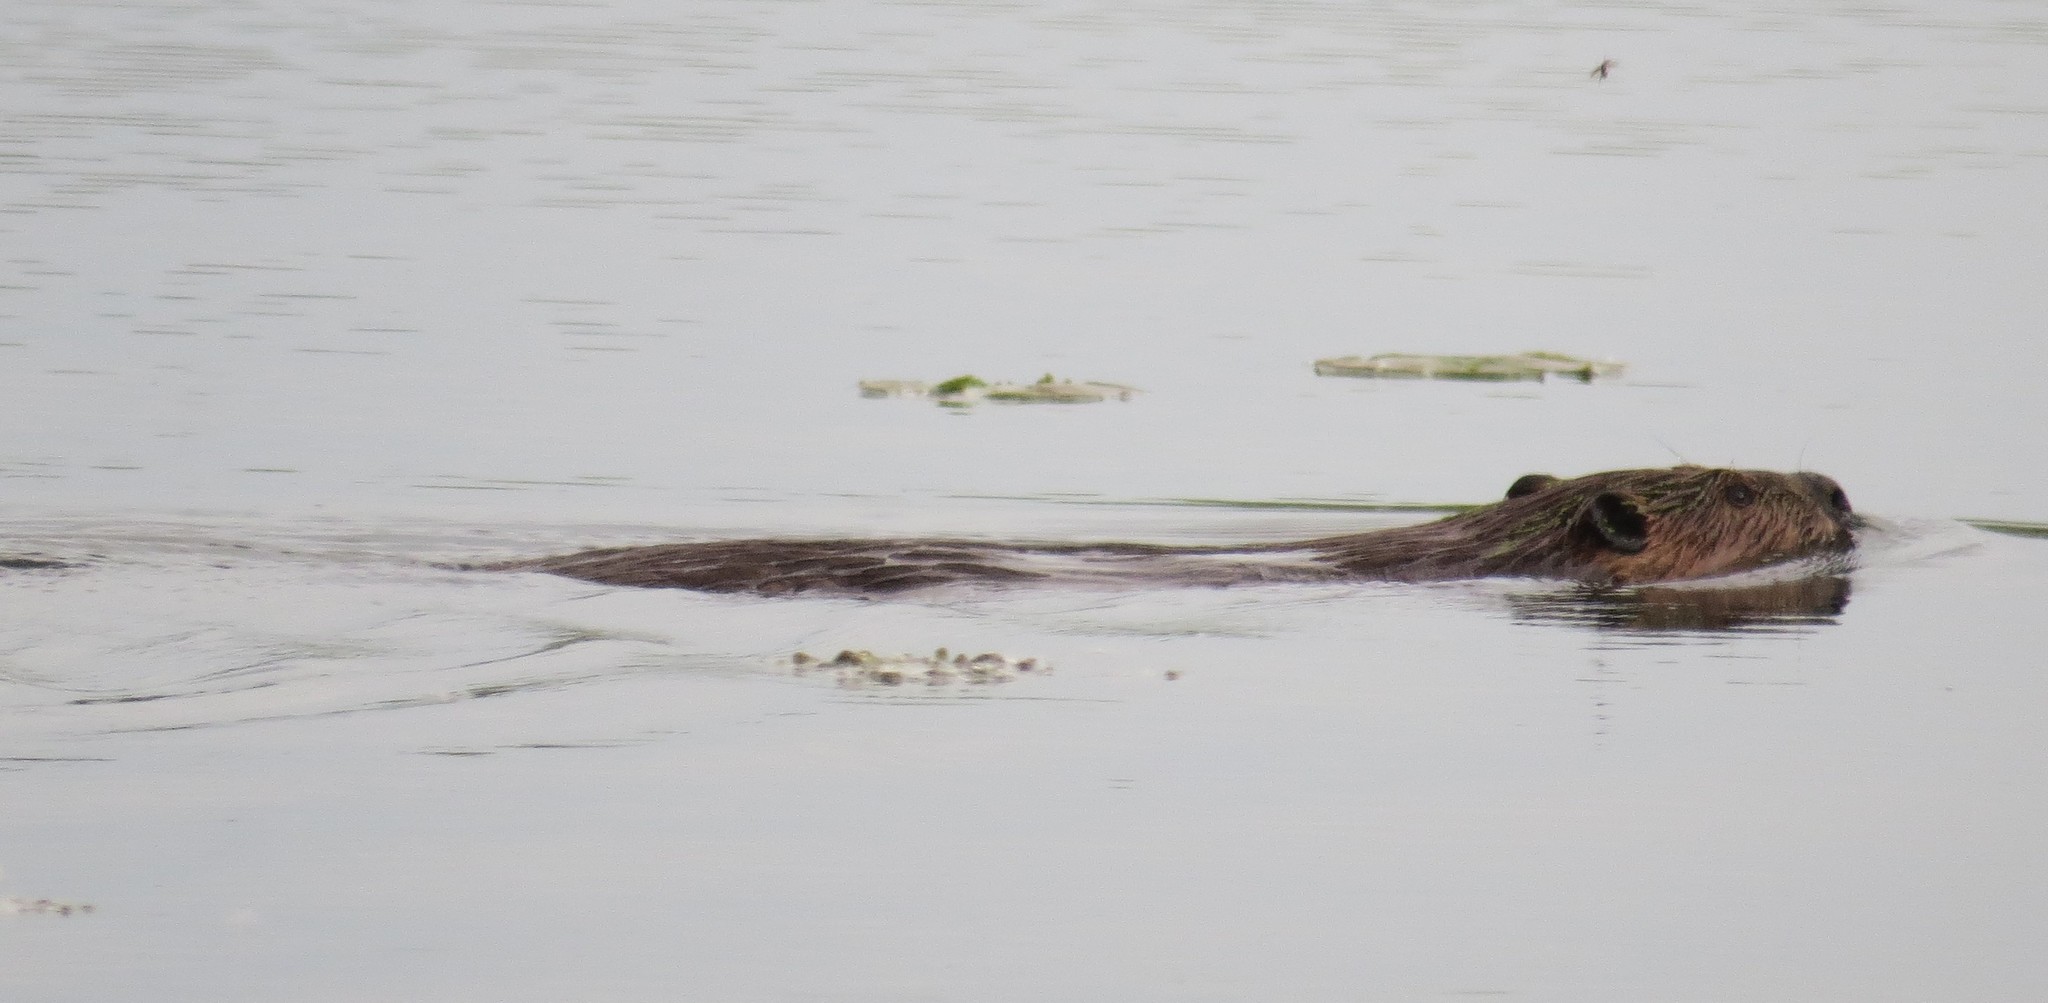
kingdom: Animalia
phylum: Chordata
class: Mammalia
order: Rodentia
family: Castoridae
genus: Castor
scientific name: Castor canadensis
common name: American beaver
